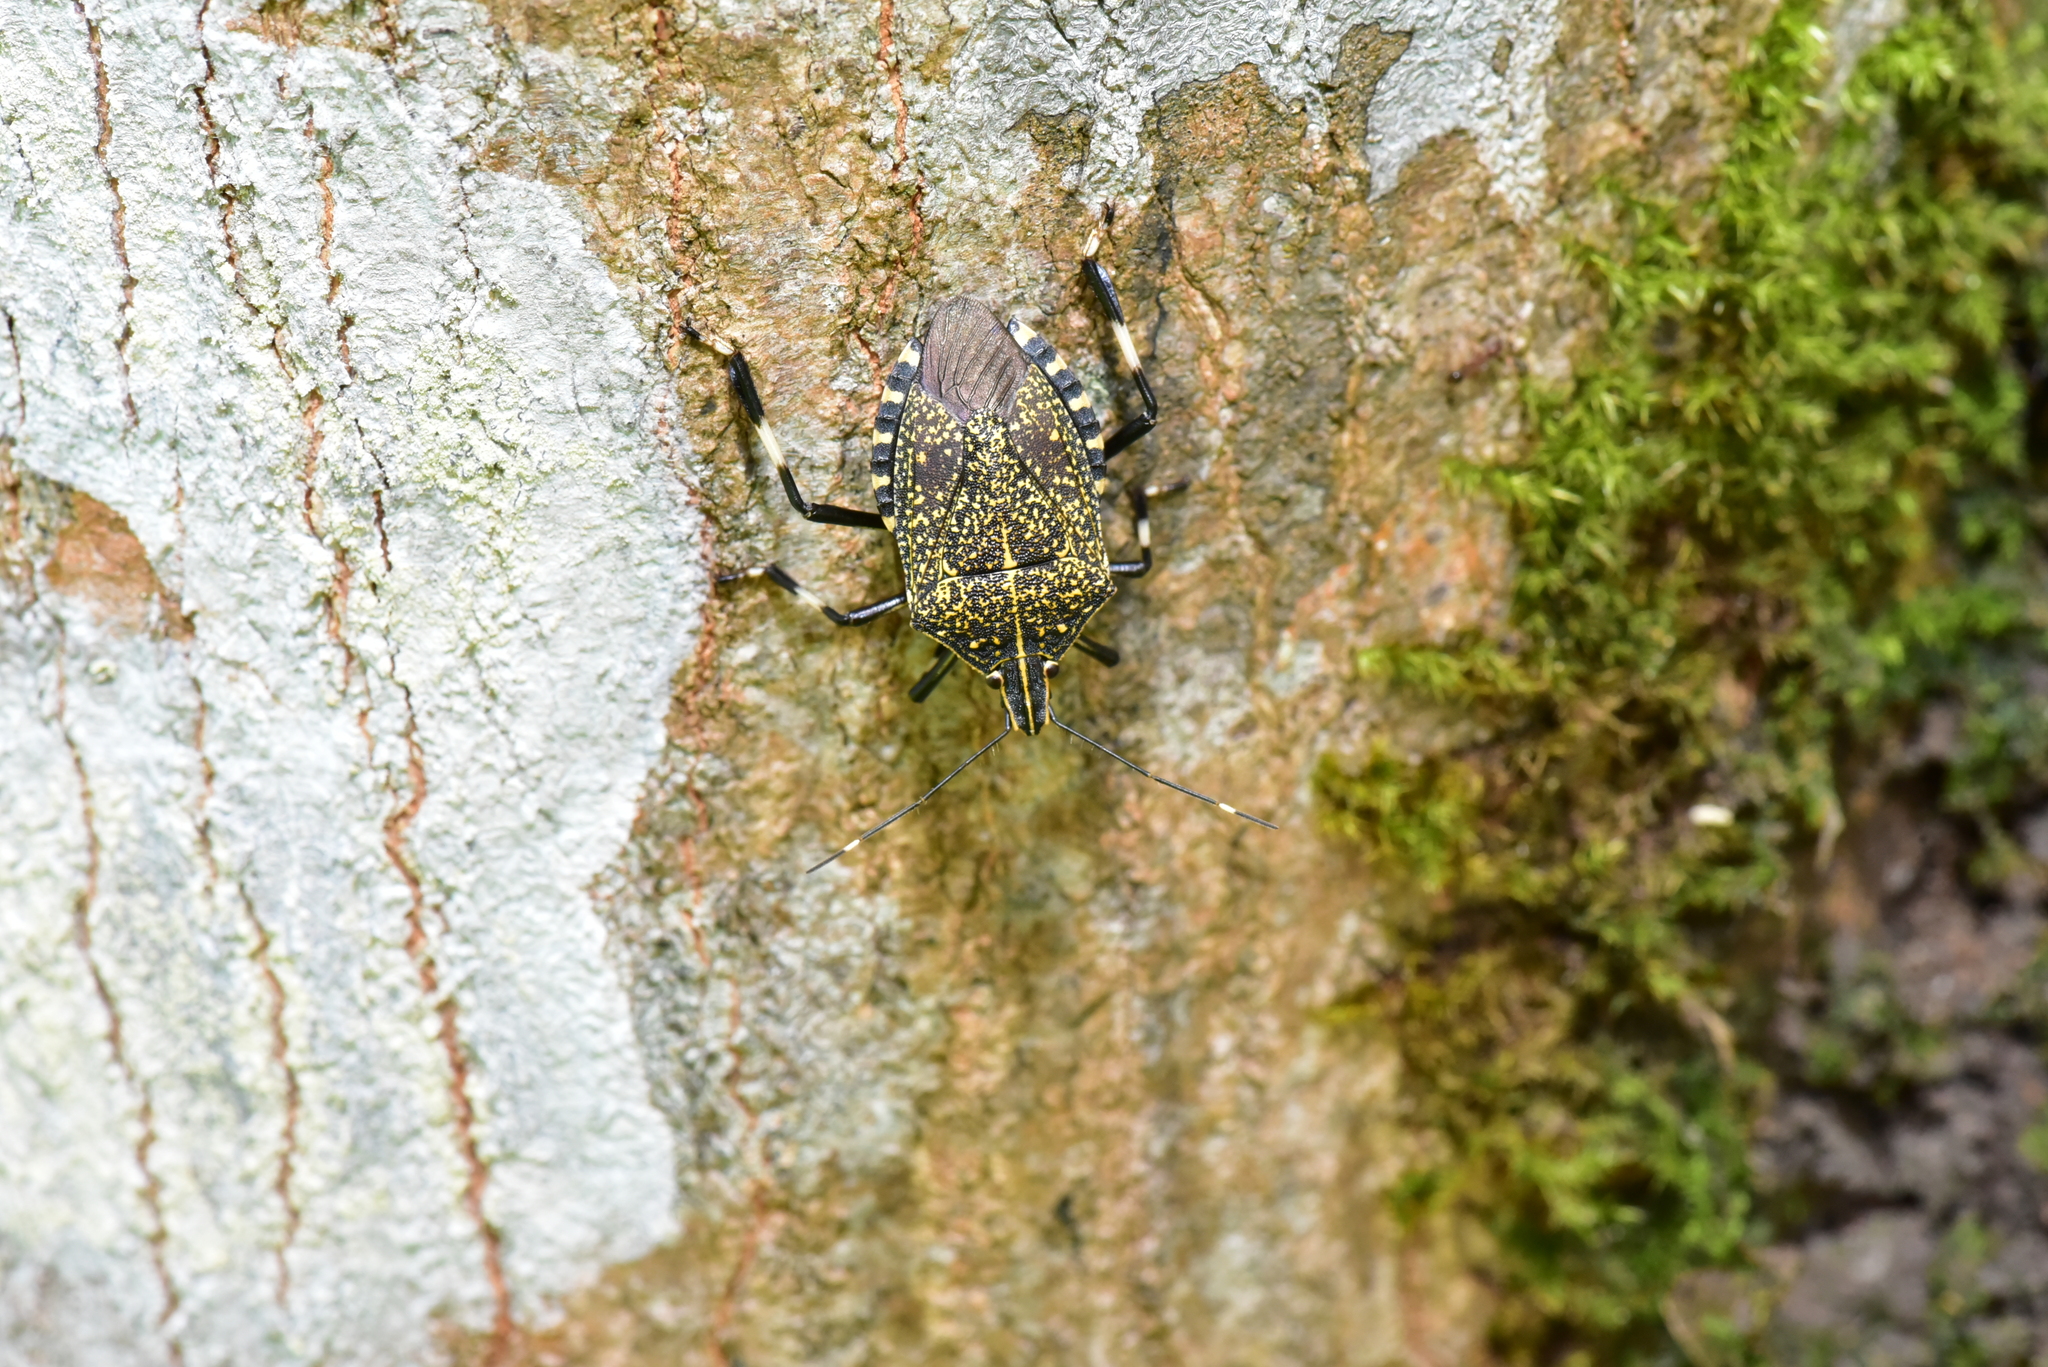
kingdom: Animalia
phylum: Arthropoda
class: Insecta
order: Hemiptera
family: Pentatomidae
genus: Erthesina
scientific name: Erthesina fullo
